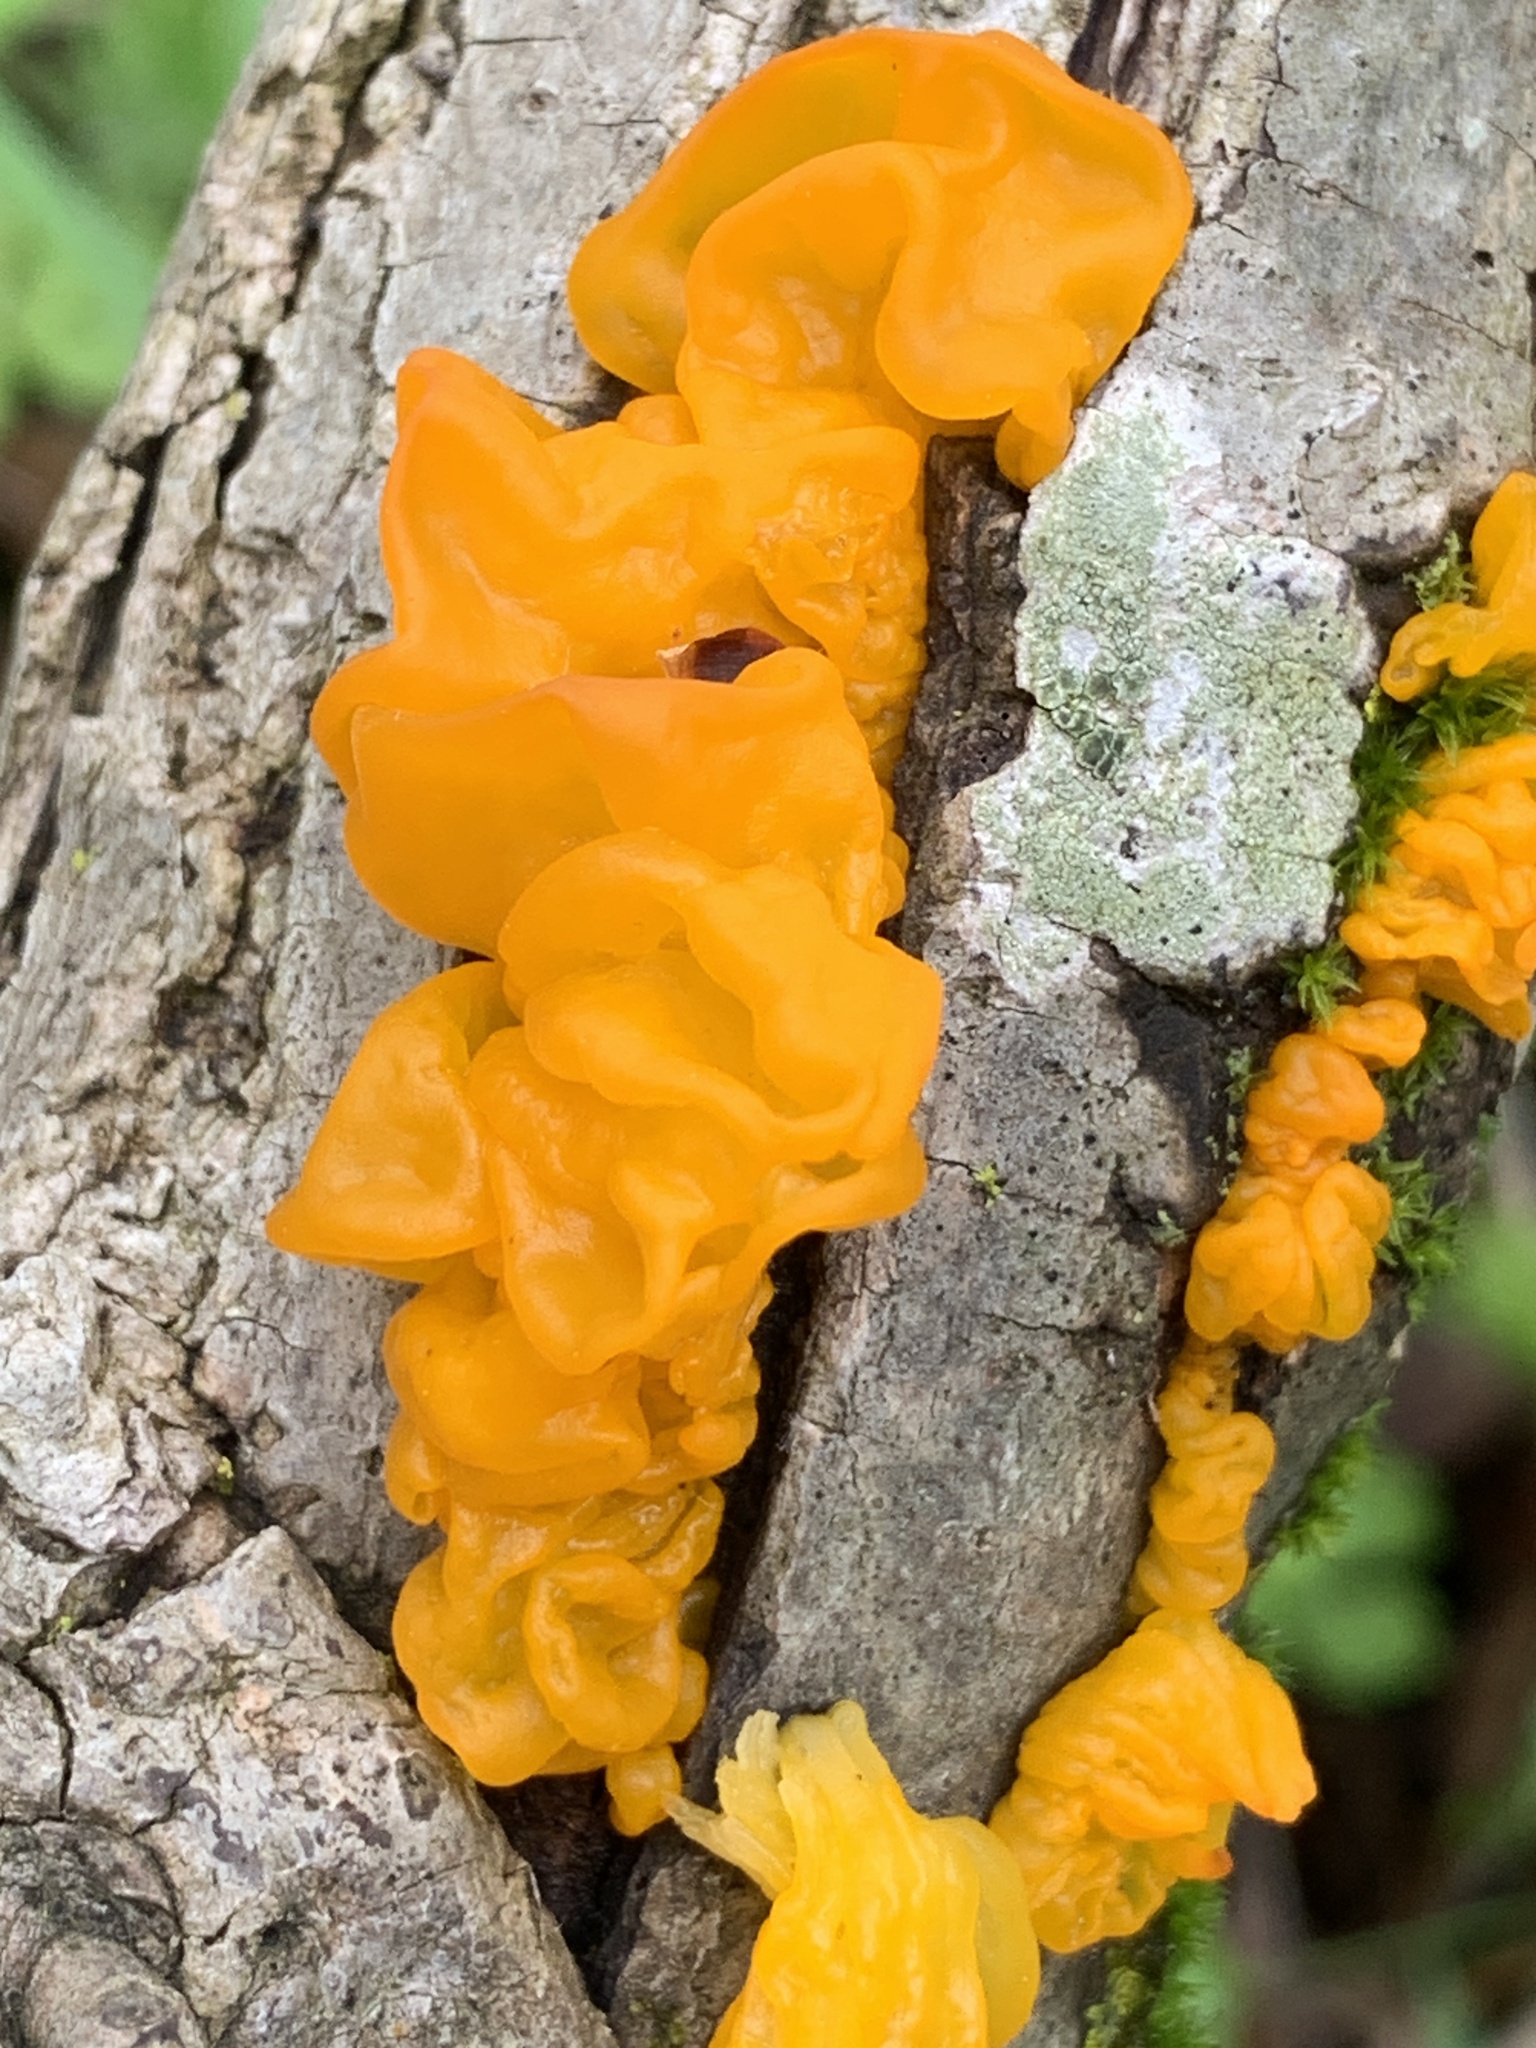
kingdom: Fungi
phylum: Basidiomycota
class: Tremellomycetes
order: Tremellales
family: Tremellaceae
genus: Tremella
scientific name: Tremella mesenterica
